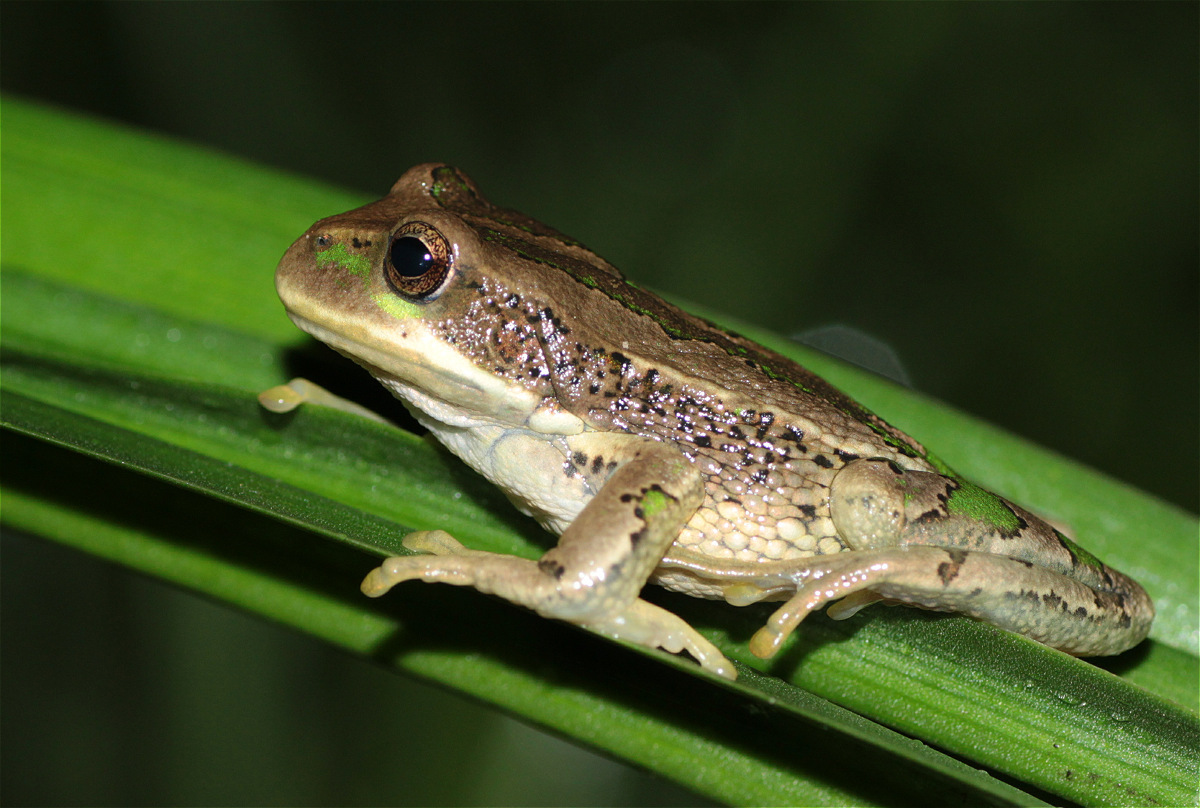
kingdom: Animalia
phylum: Chordata
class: Amphibia
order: Anura
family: Hemiphractidae
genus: Gastrotheca
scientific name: Gastrotheca cuencana
